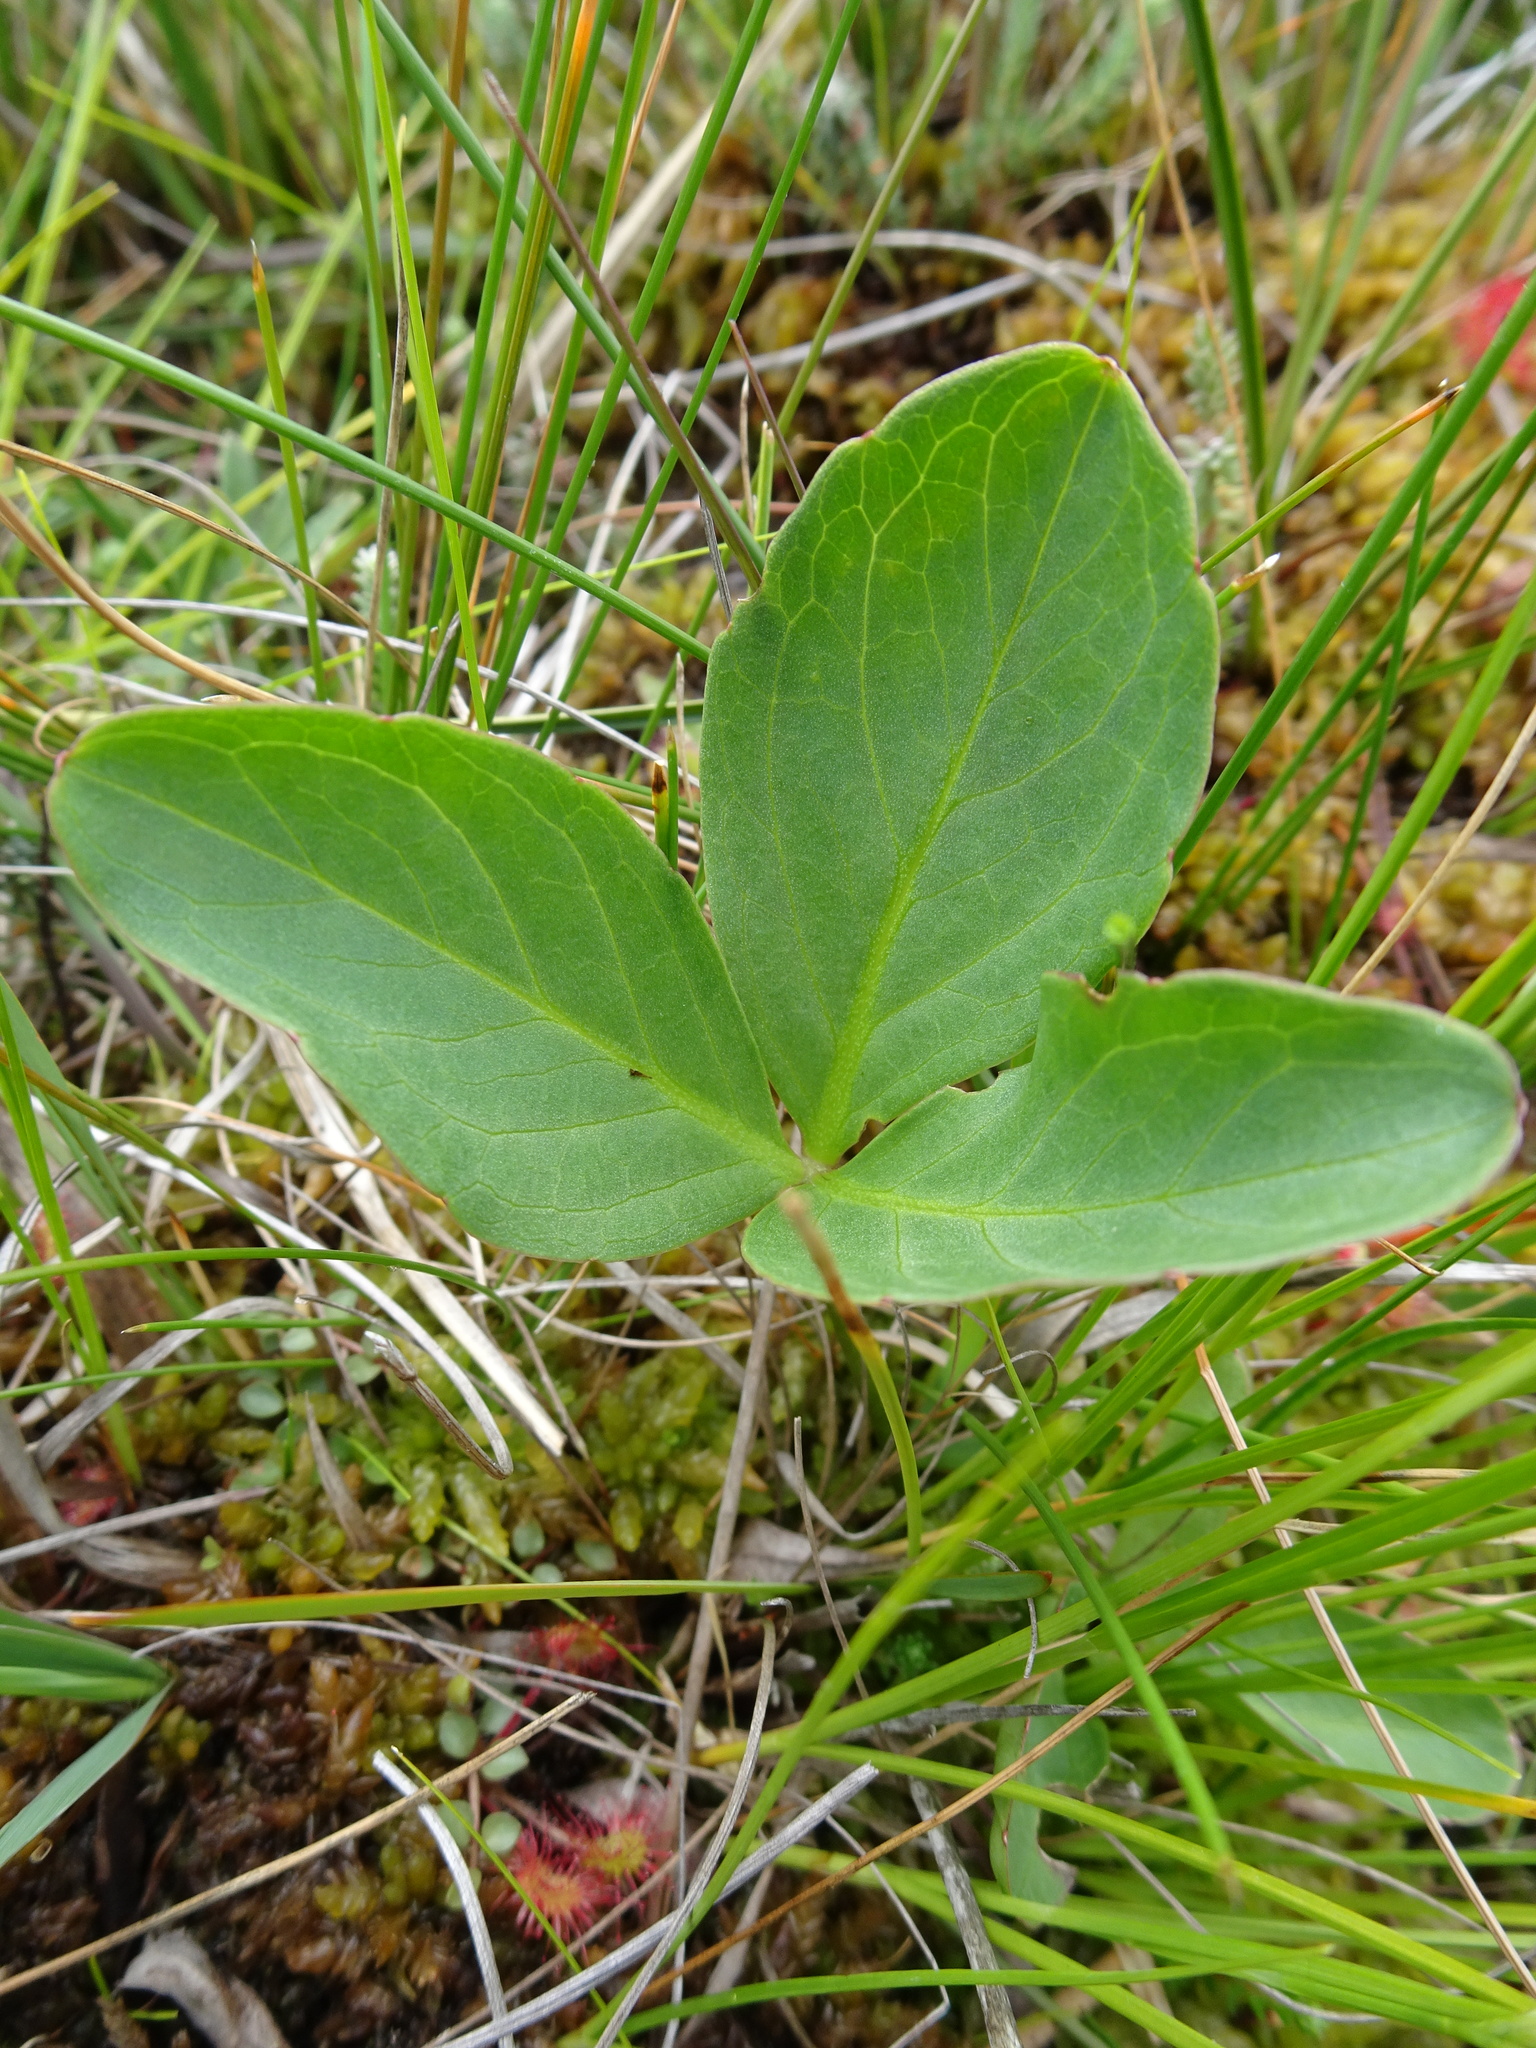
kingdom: Plantae
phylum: Tracheophyta
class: Magnoliopsida
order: Asterales
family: Menyanthaceae
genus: Menyanthes
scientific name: Menyanthes trifoliata
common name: Bogbean
